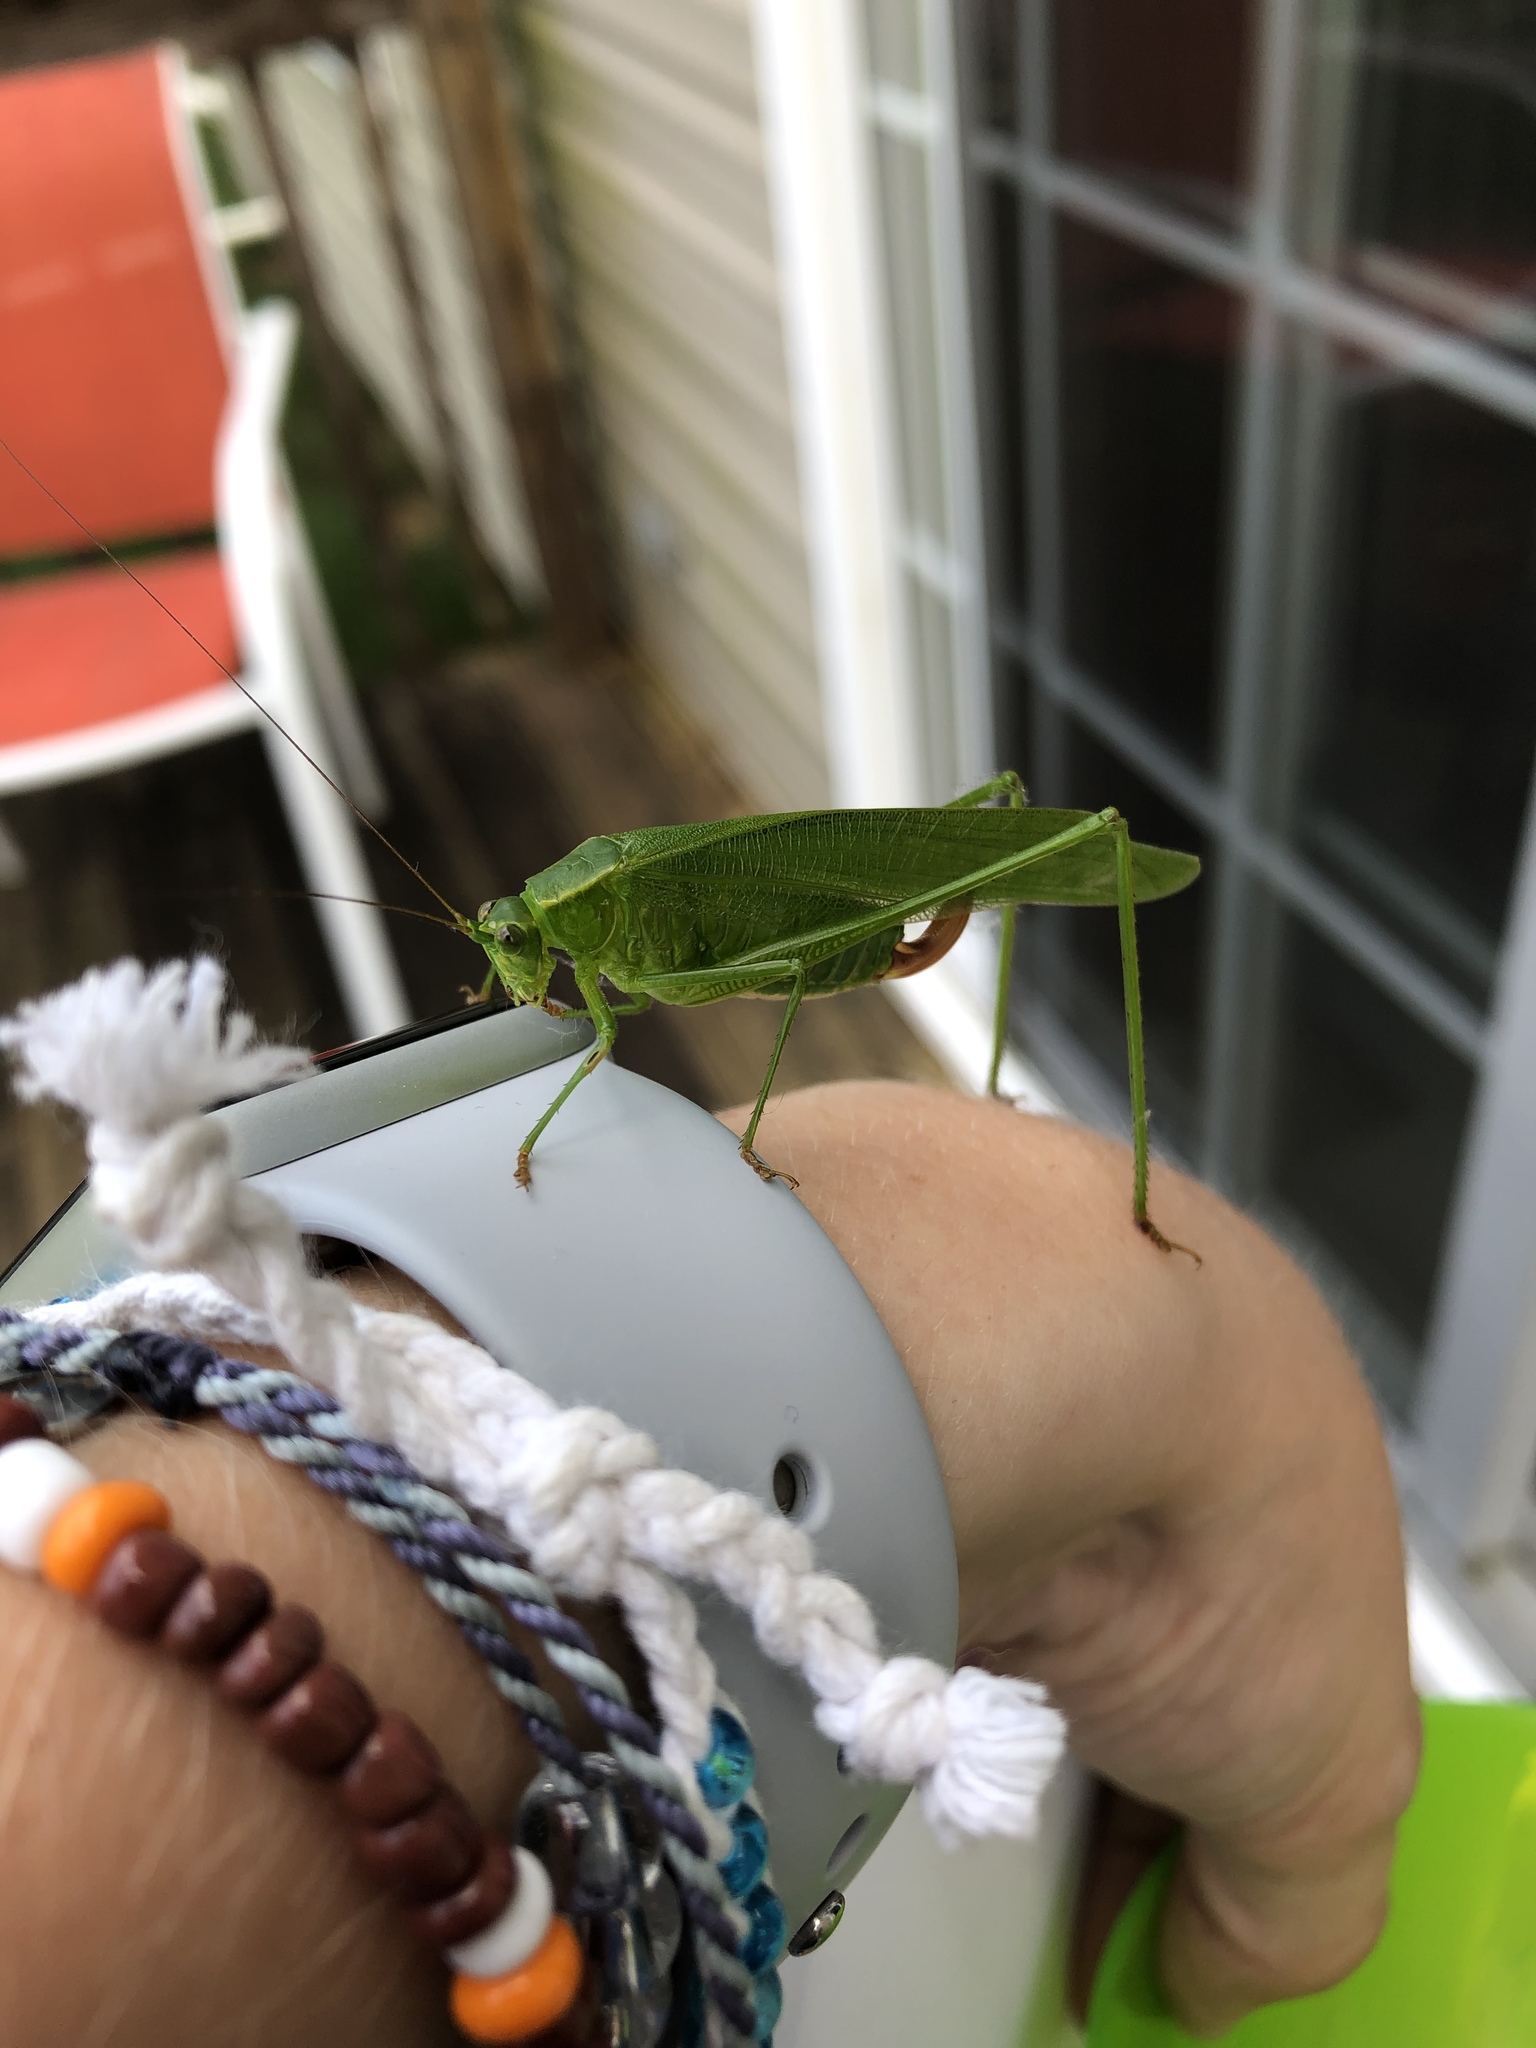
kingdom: Animalia
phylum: Arthropoda
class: Insecta
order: Orthoptera
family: Tettigoniidae
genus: Scudderia
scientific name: Scudderia furcata
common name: Fork-tailed bush katydid
